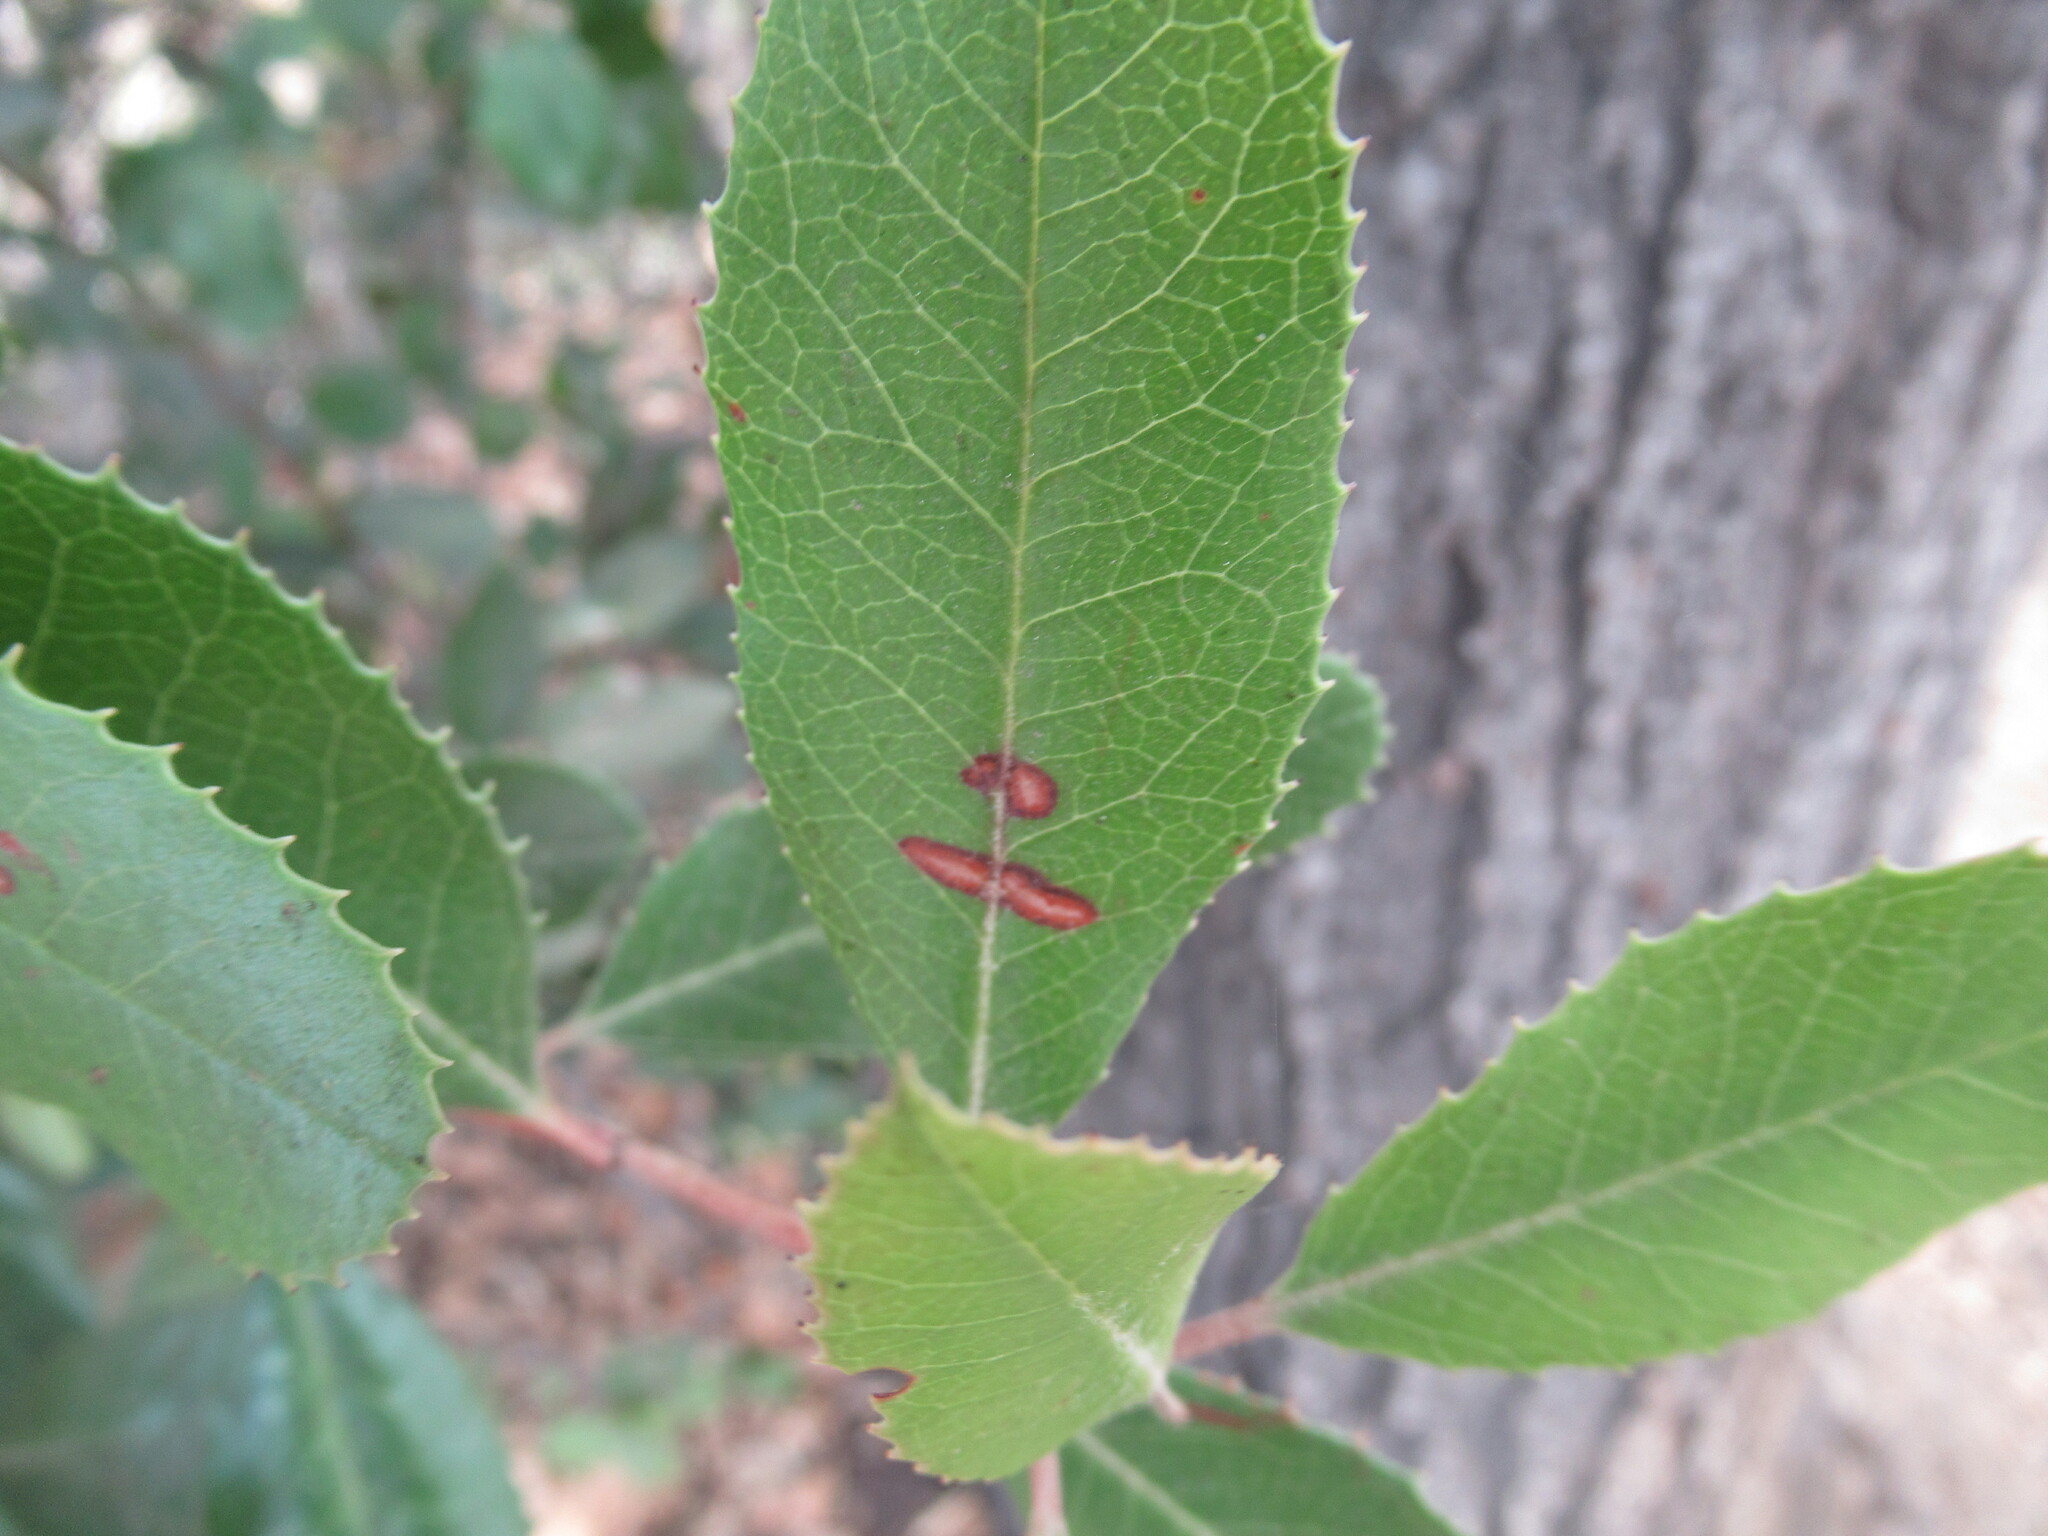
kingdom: Plantae
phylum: Tracheophyta
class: Magnoliopsida
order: Rosales
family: Rosaceae
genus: Heteromeles
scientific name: Heteromeles arbutifolia
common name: California-holly
